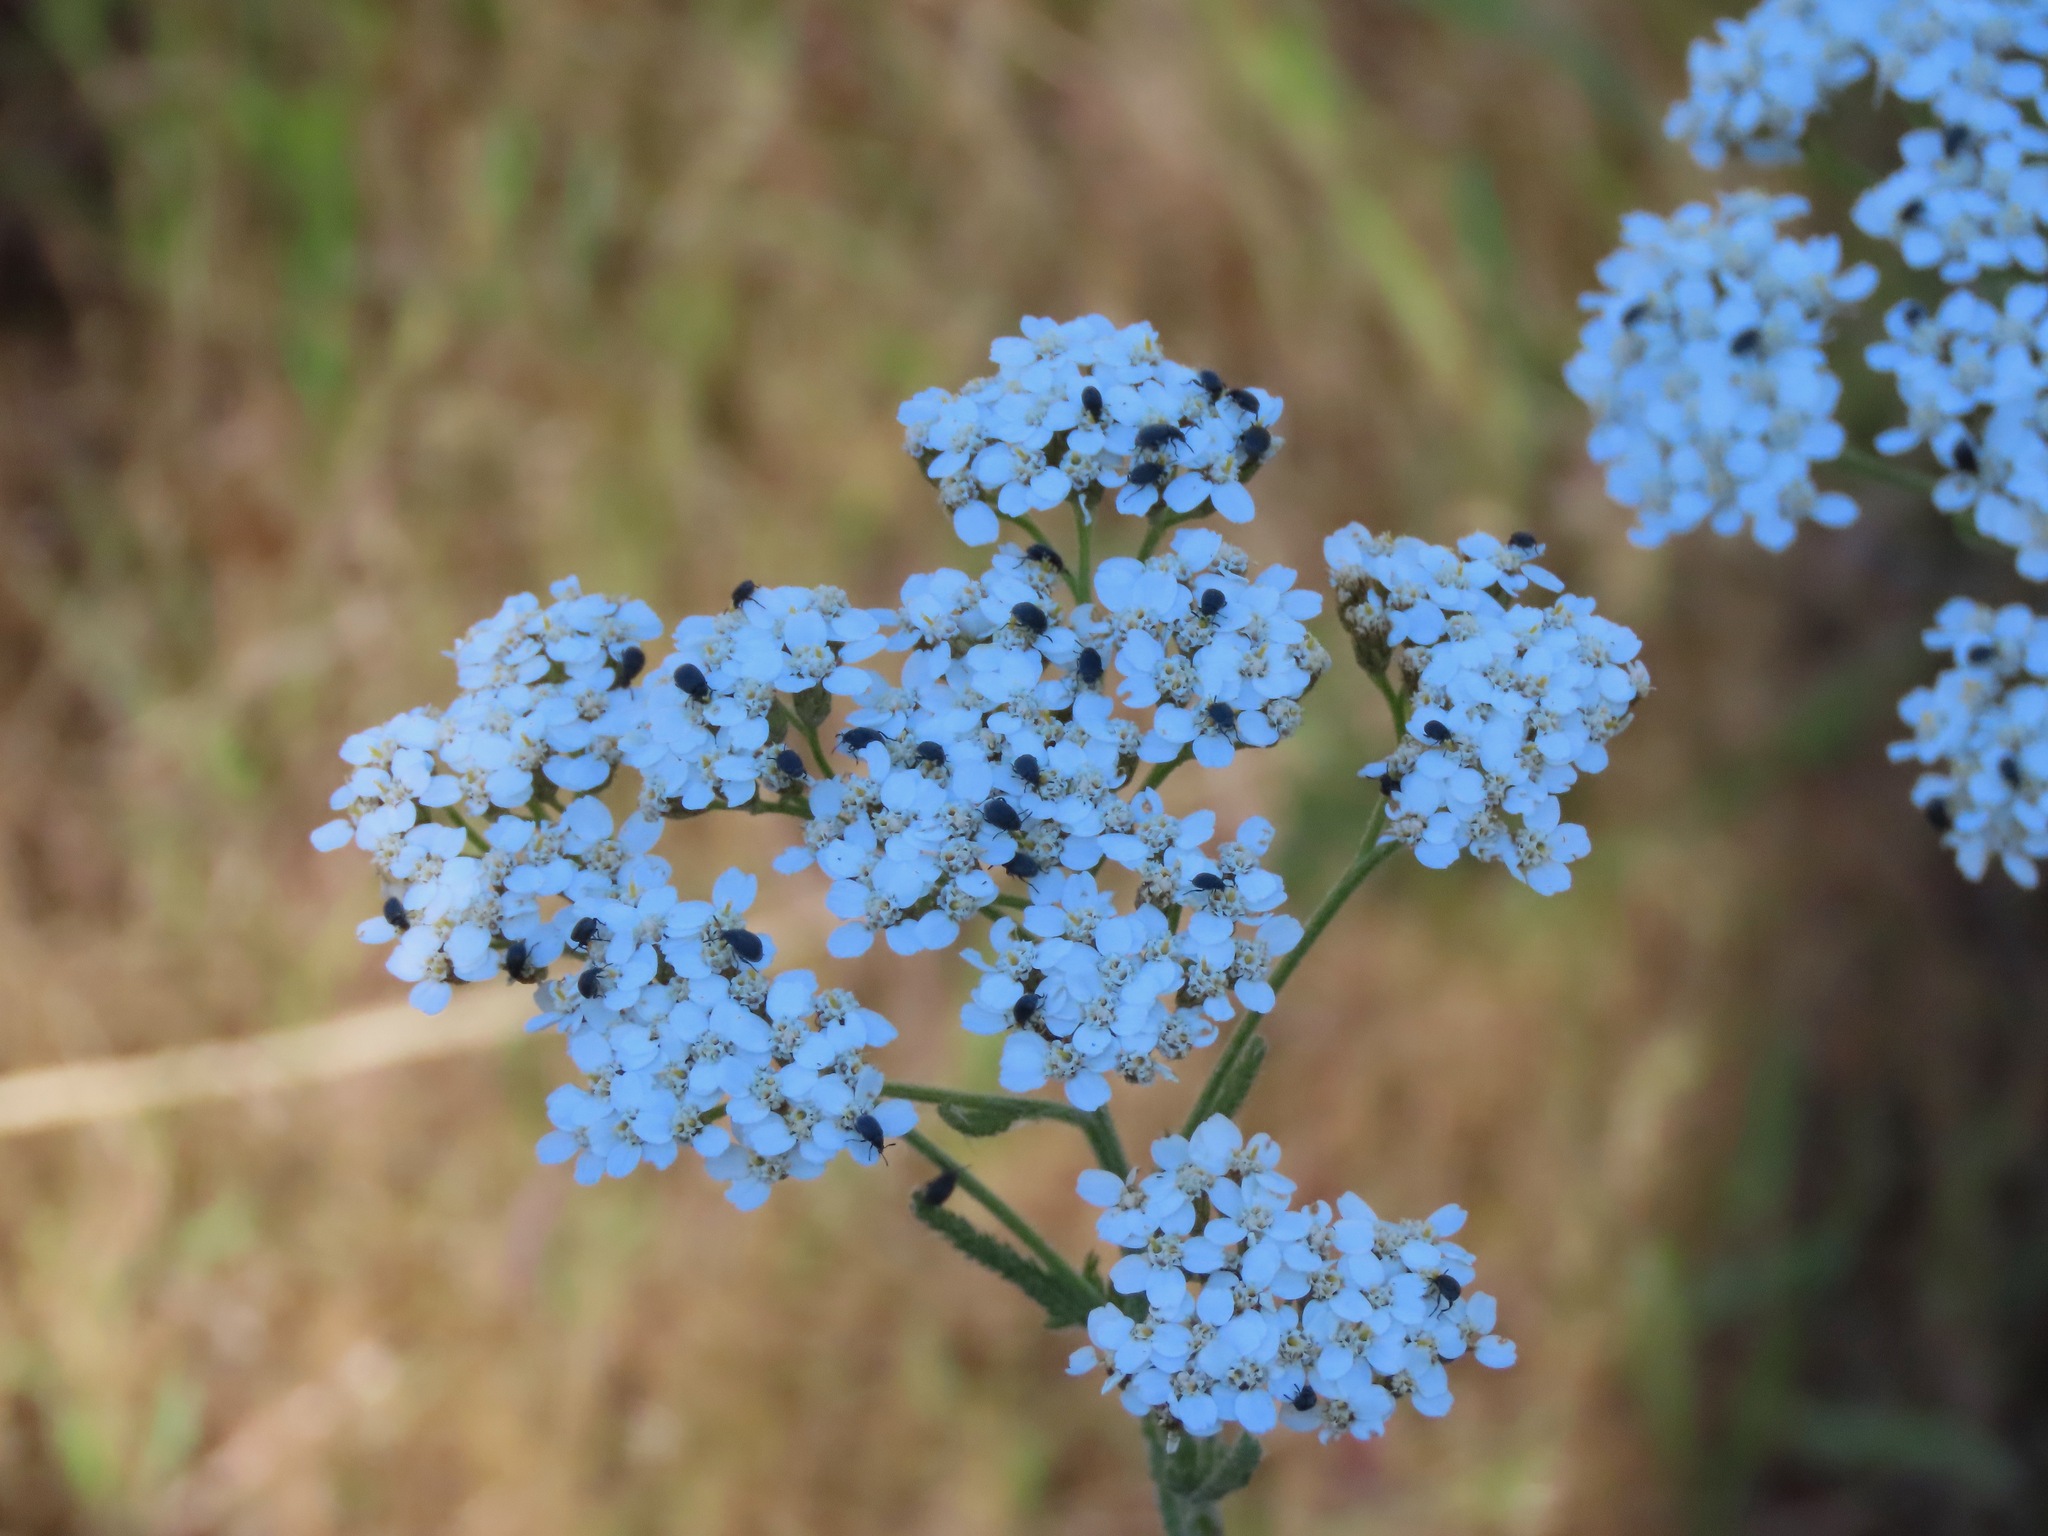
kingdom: Plantae
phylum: Tracheophyta
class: Magnoliopsida
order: Asterales
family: Asteraceae
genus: Achillea
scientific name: Achillea millefolium
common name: Yarrow
